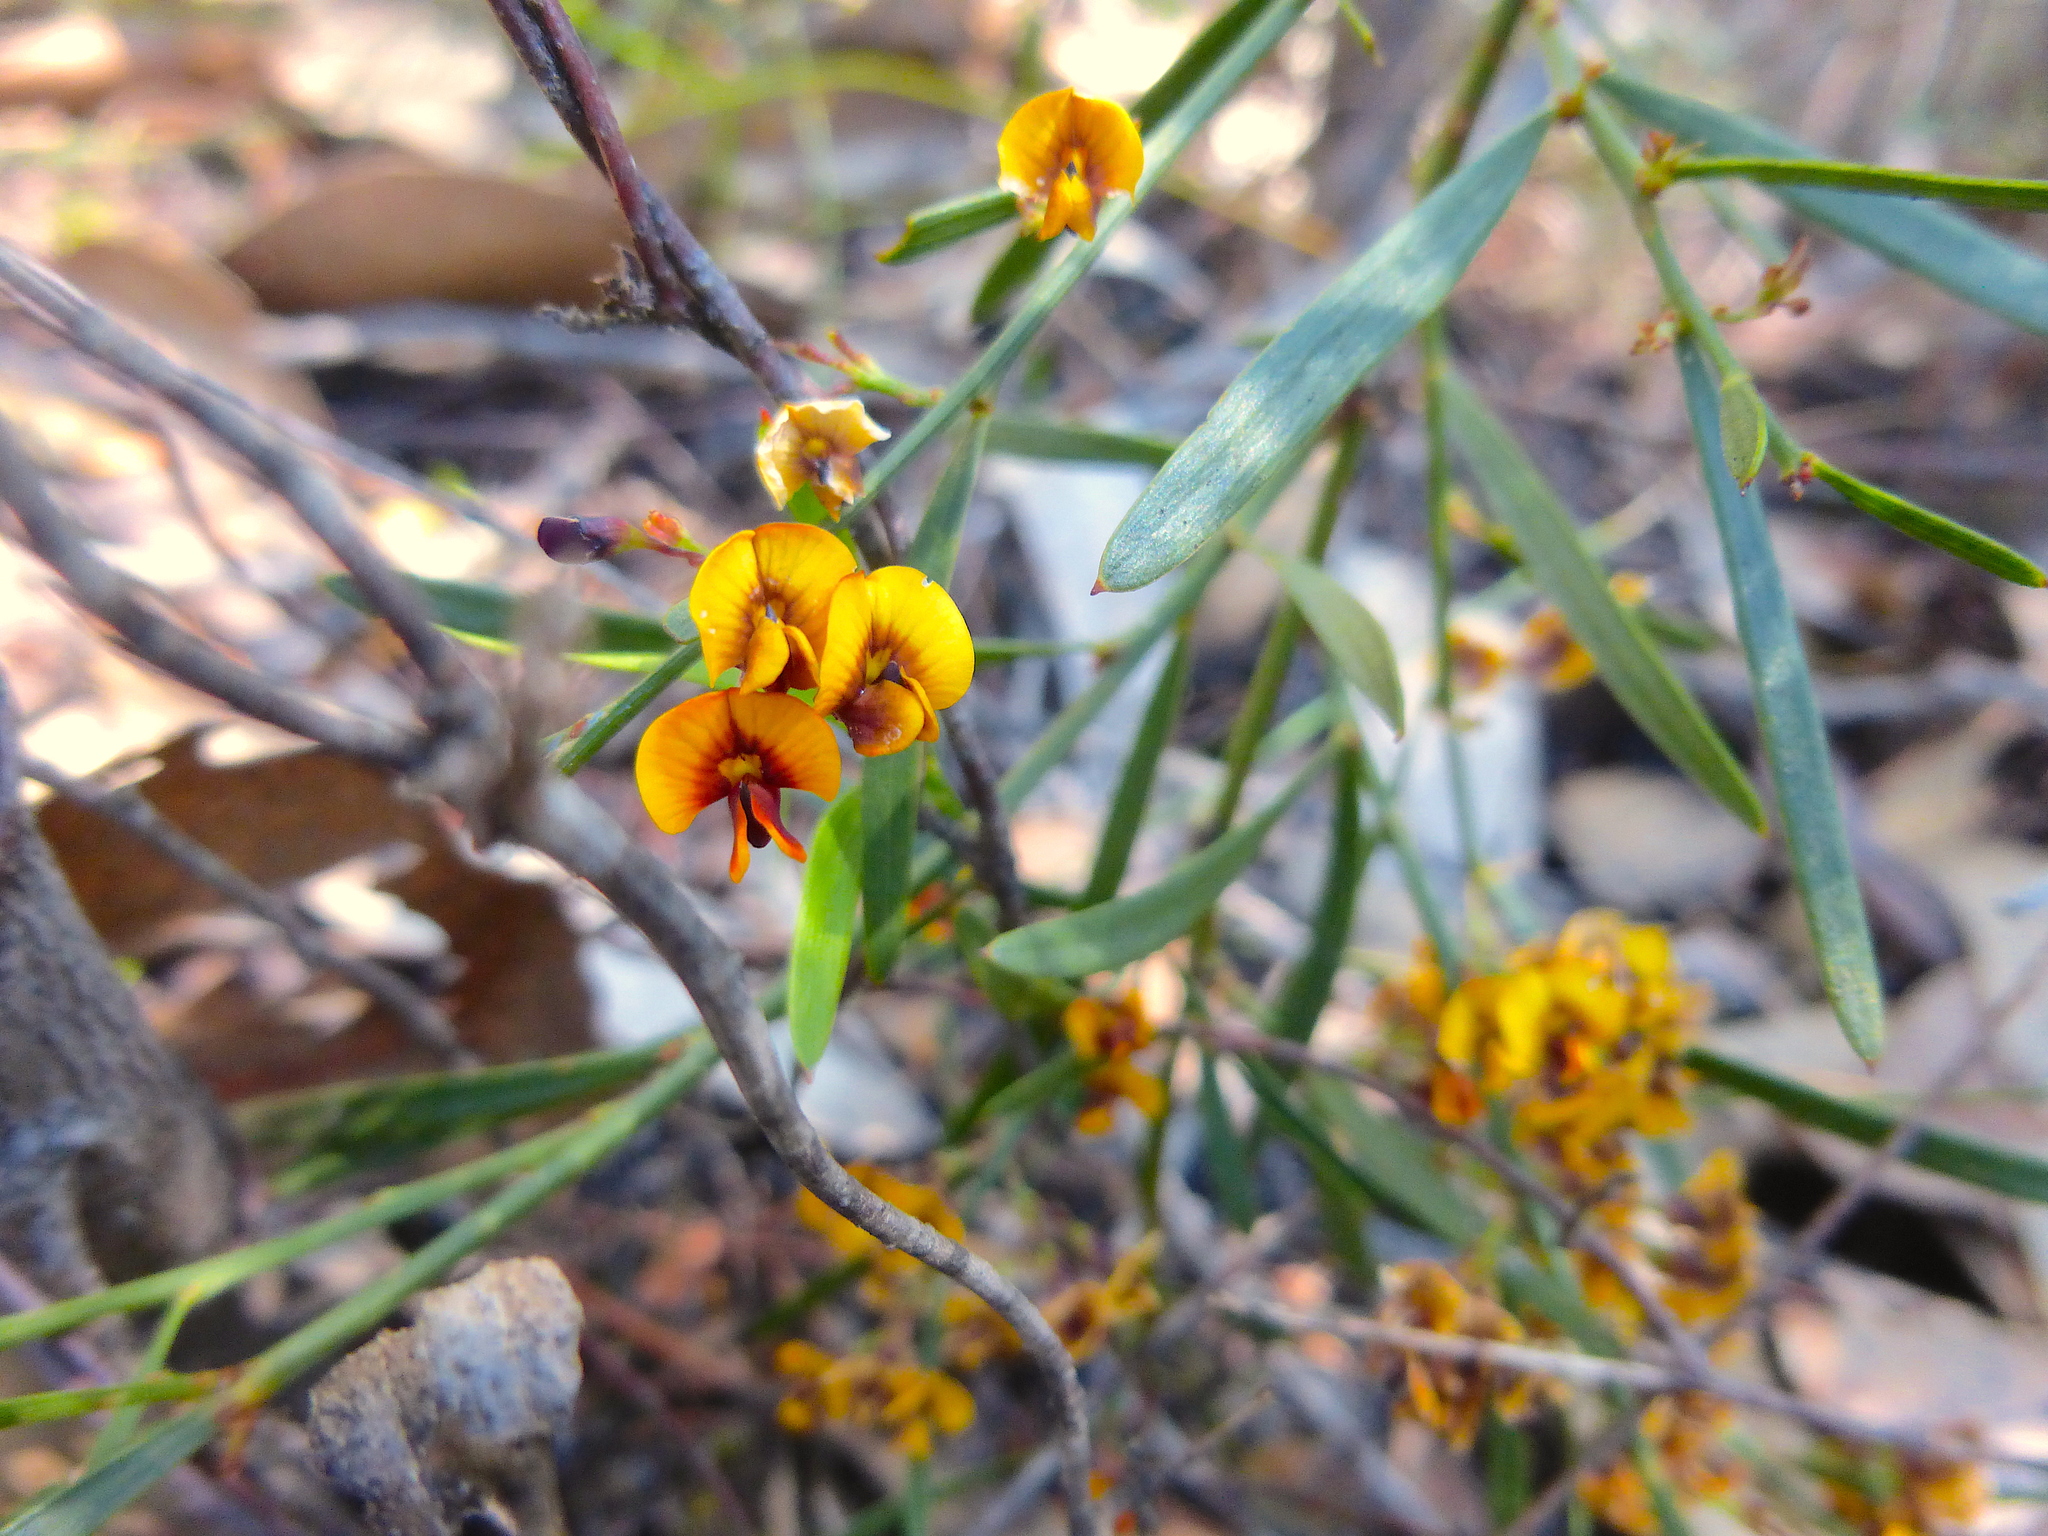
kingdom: Plantae
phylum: Tracheophyta
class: Magnoliopsida
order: Fabales
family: Fabaceae
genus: Daviesia
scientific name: Daviesia leptophylla
